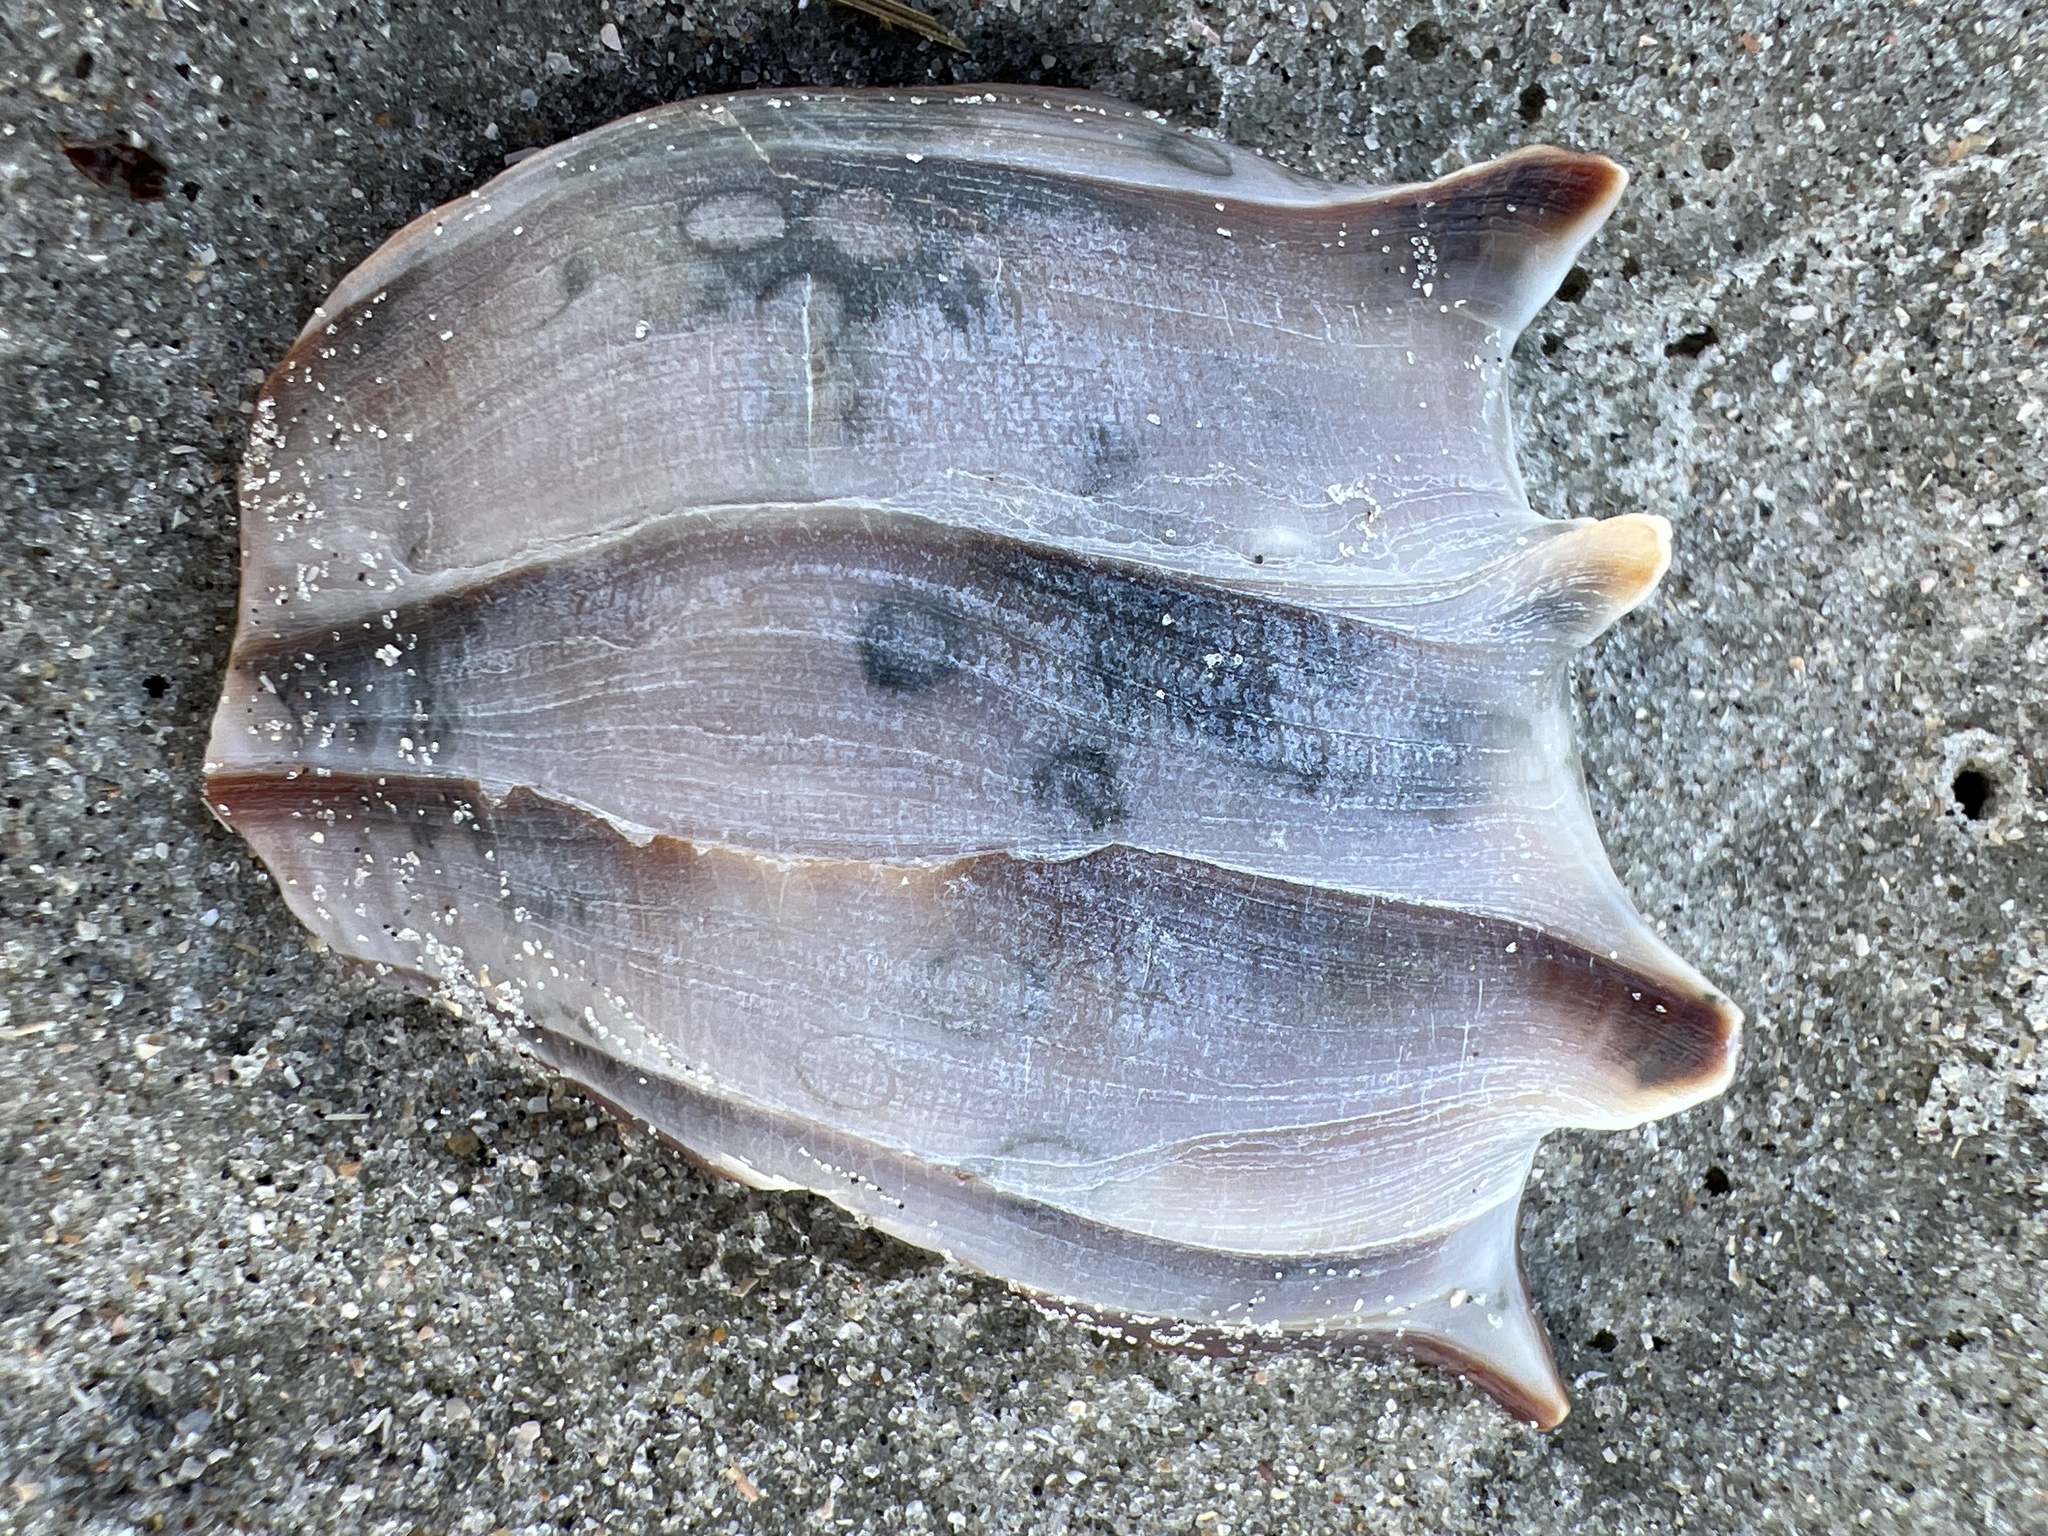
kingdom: Animalia
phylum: Mollusca
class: Gastropoda
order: Neogastropoda
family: Busyconidae
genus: Busycon
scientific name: Busycon carica
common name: Knobbed whelk
